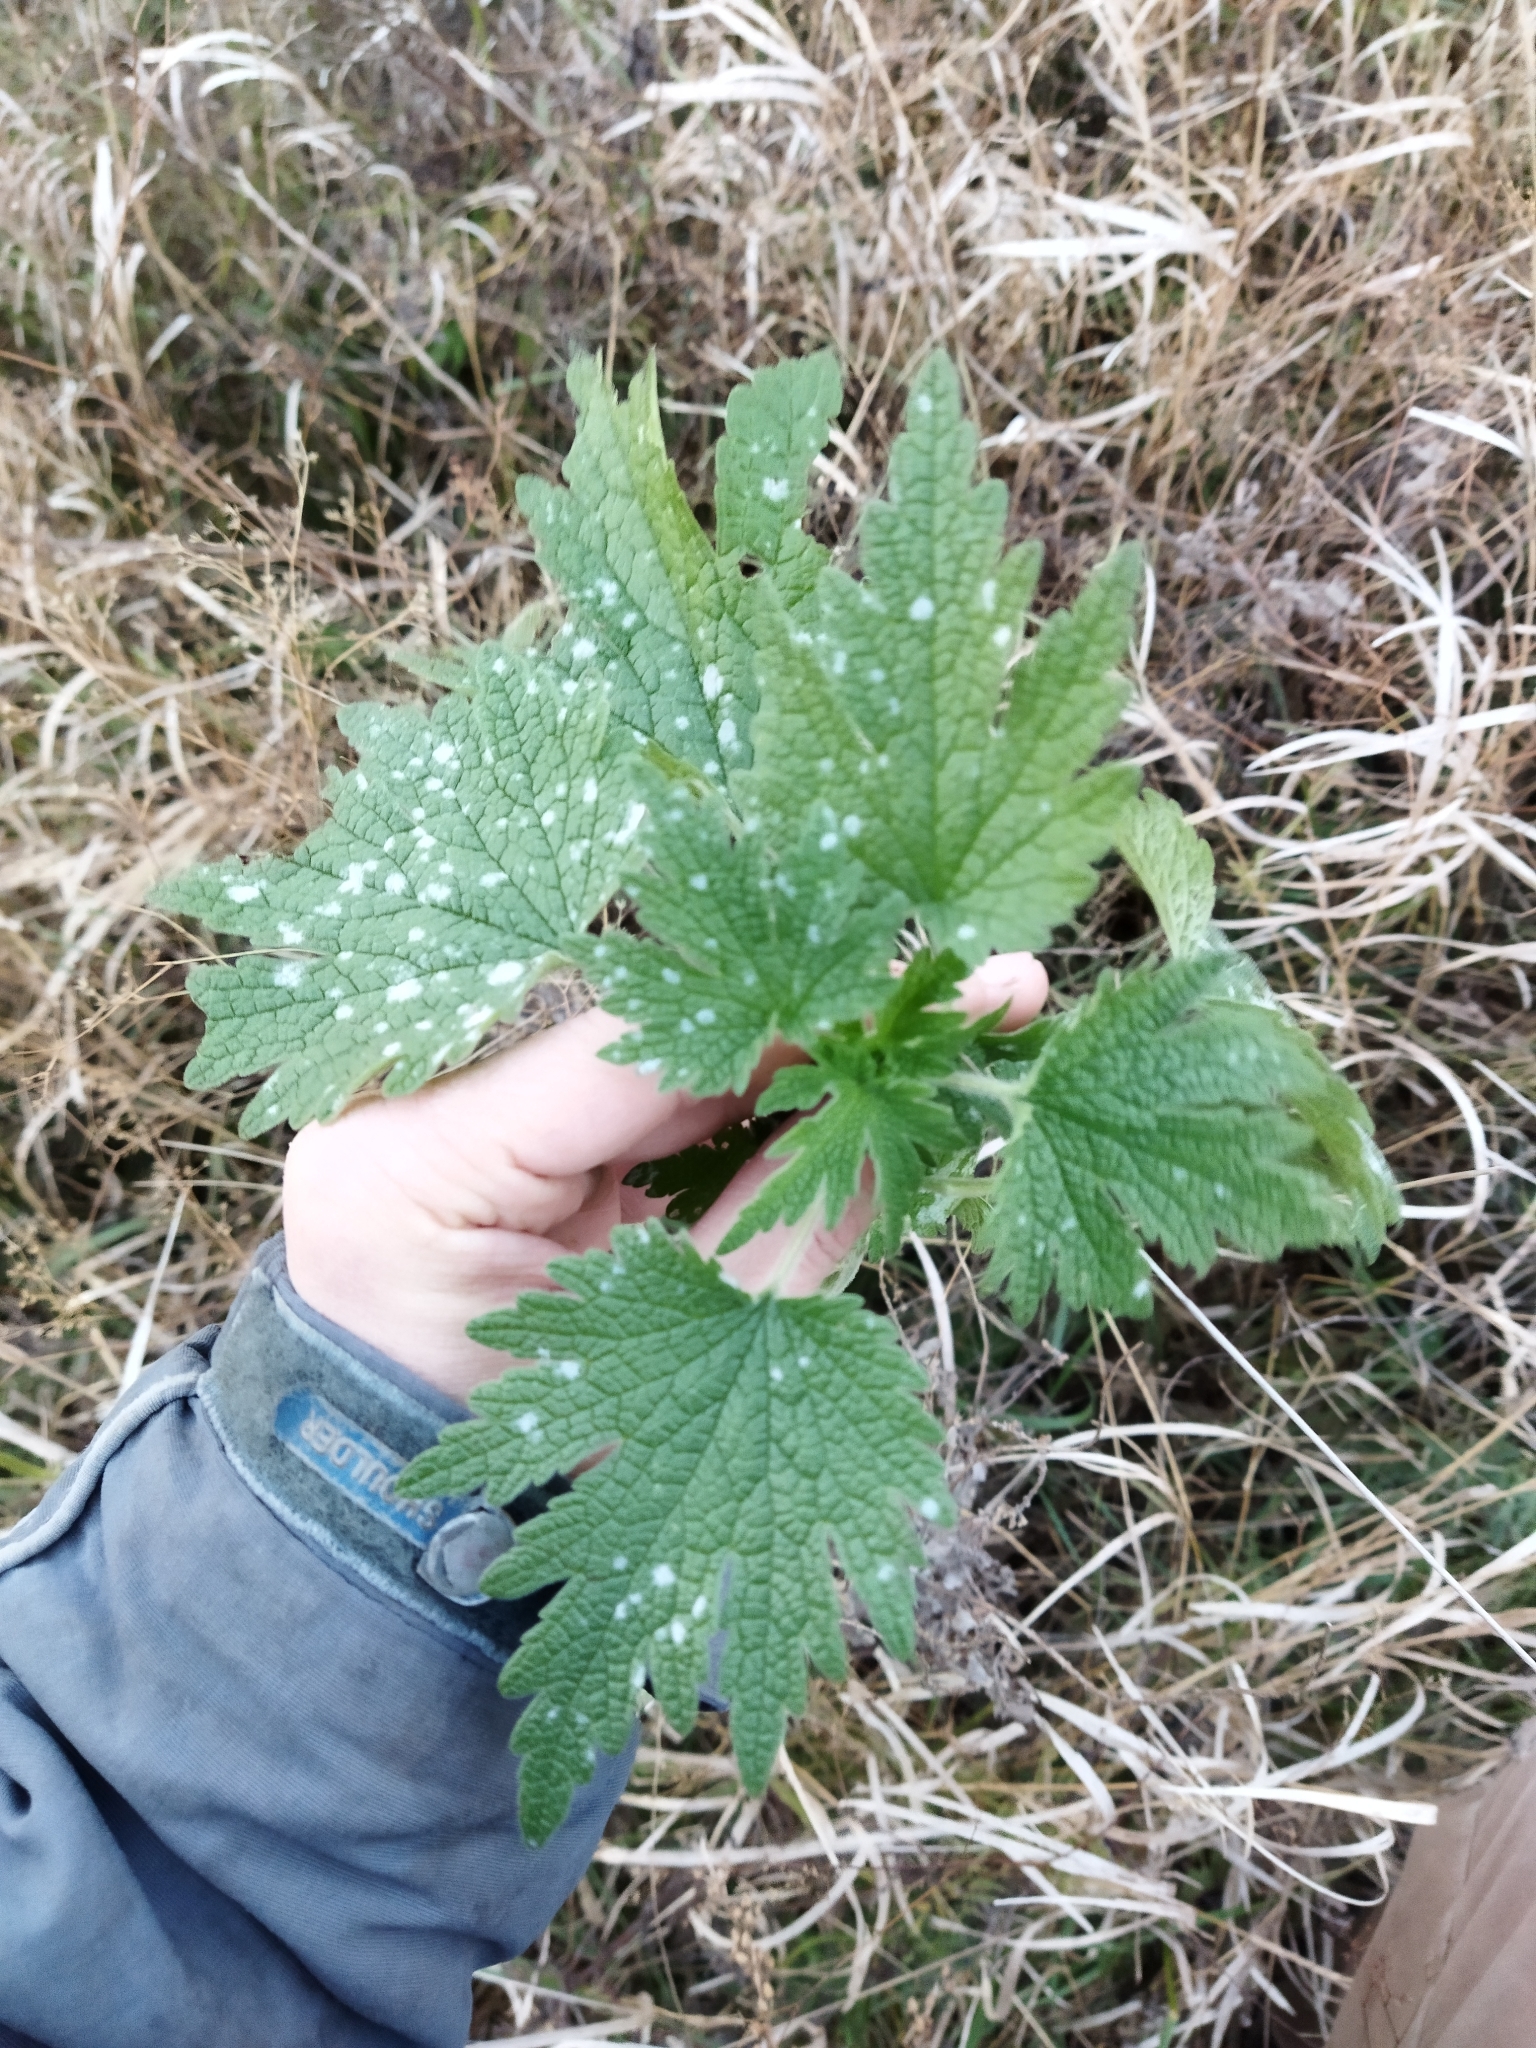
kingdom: Plantae
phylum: Tracheophyta
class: Magnoliopsida
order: Lamiales
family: Lamiaceae
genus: Leonurus
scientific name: Leonurus quinquelobatus
